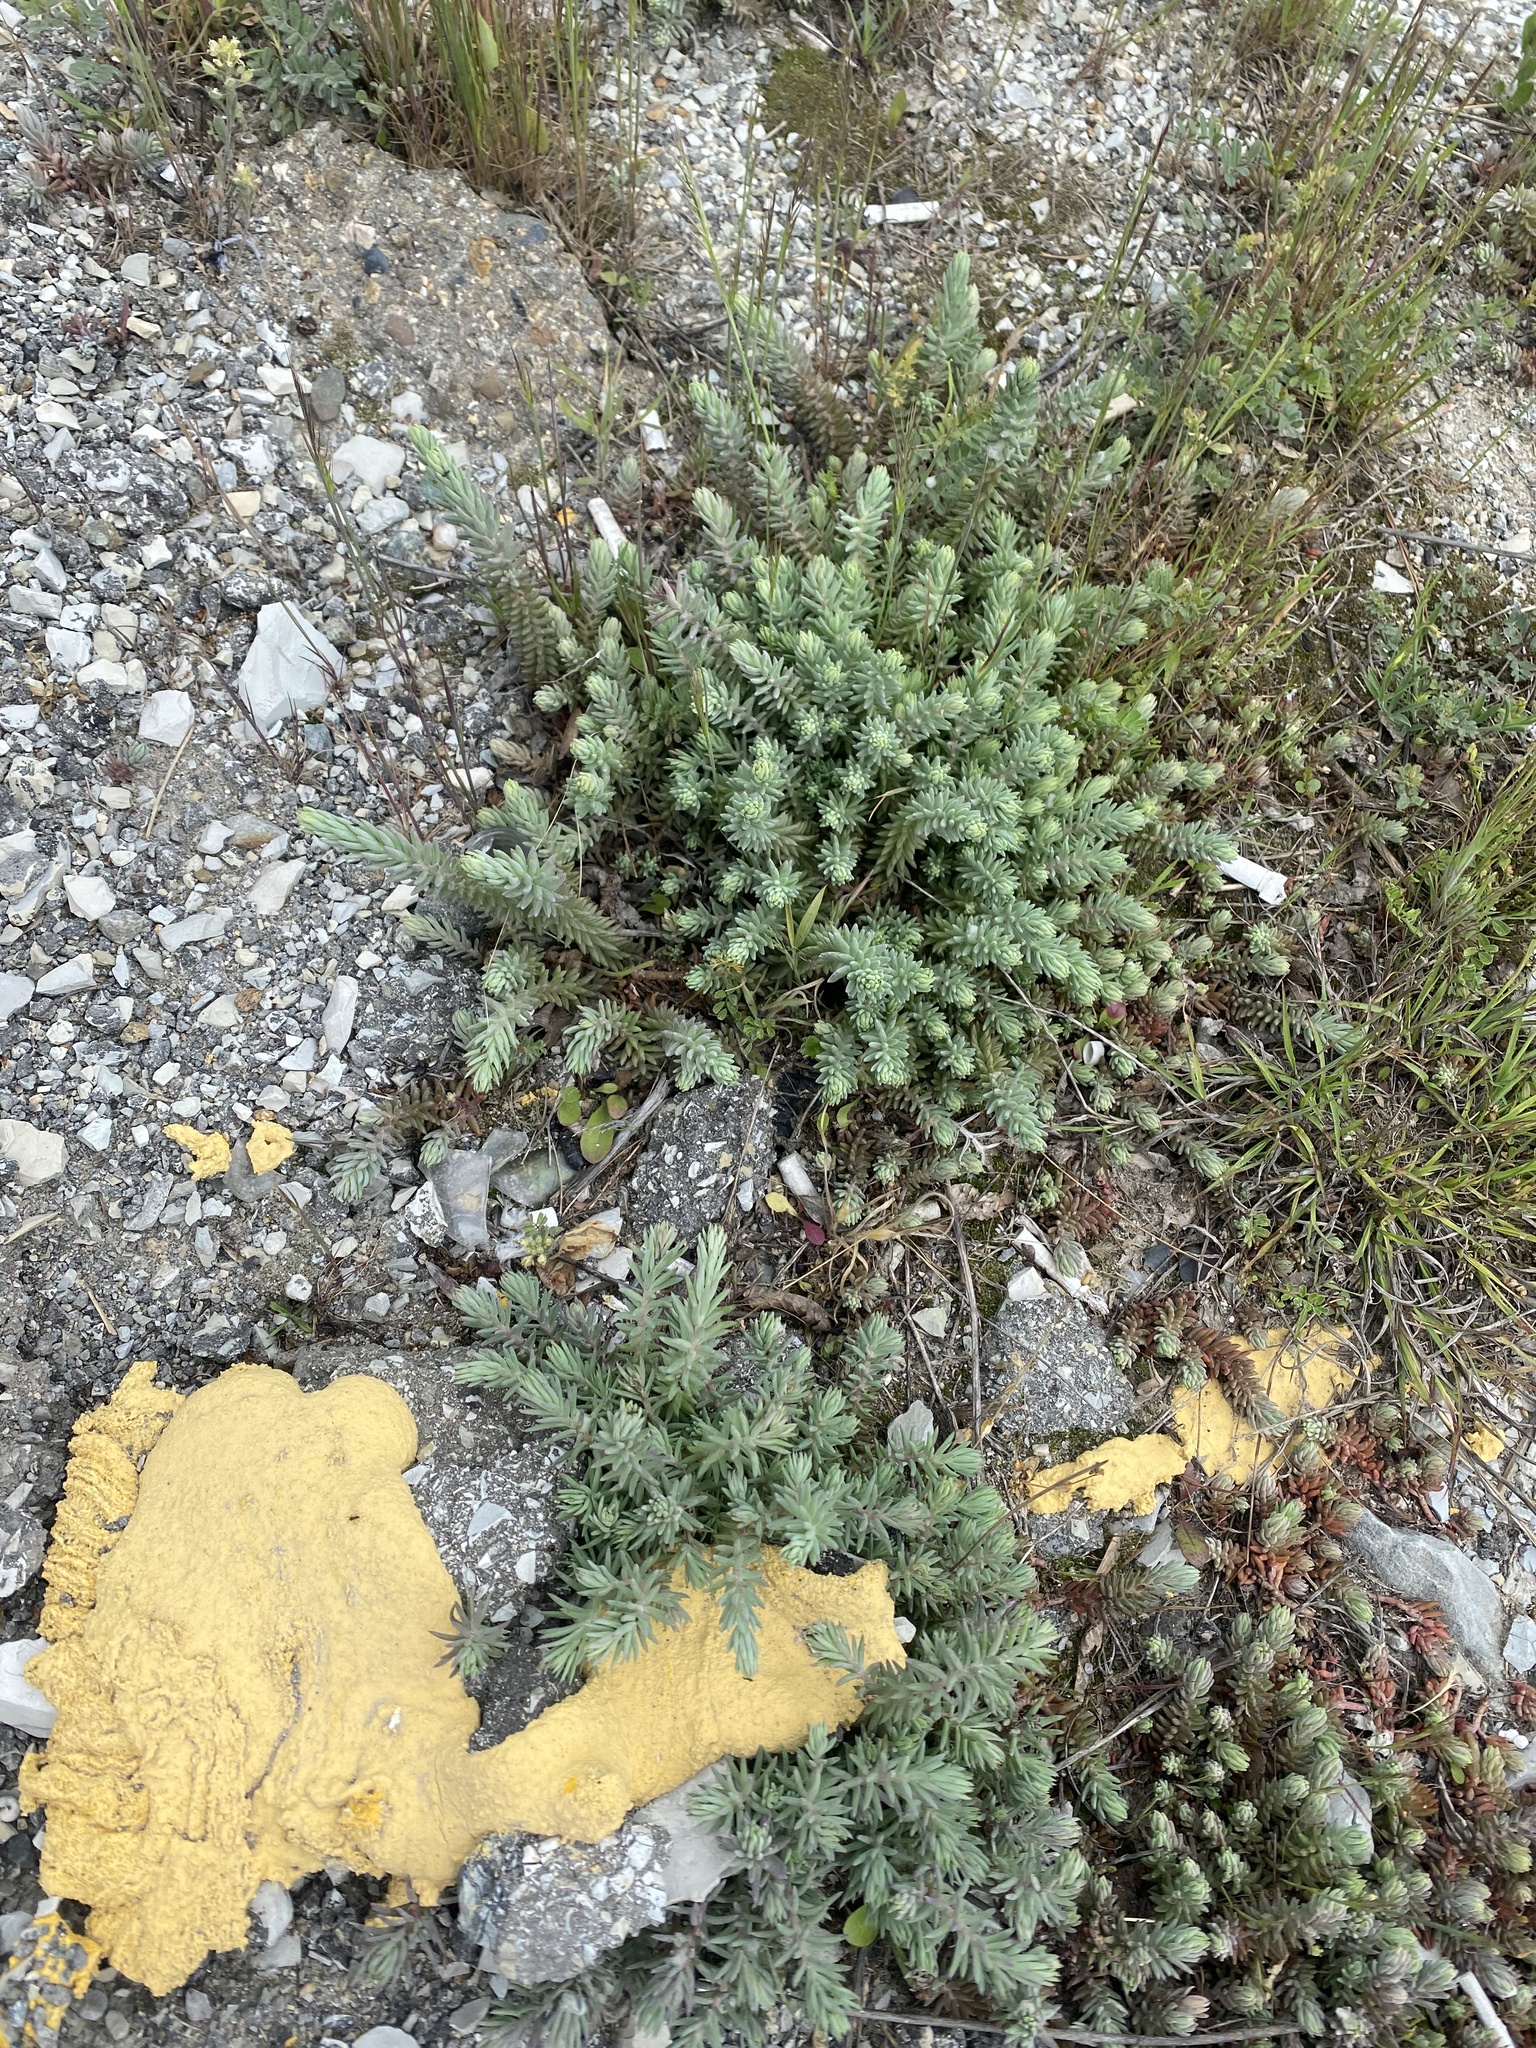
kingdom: Plantae
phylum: Tracheophyta
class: Magnoliopsida
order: Saxifragales
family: Crassulaceae
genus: Petrosedum
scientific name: Petrosedum rupestre
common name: Jenny's stonecrop
